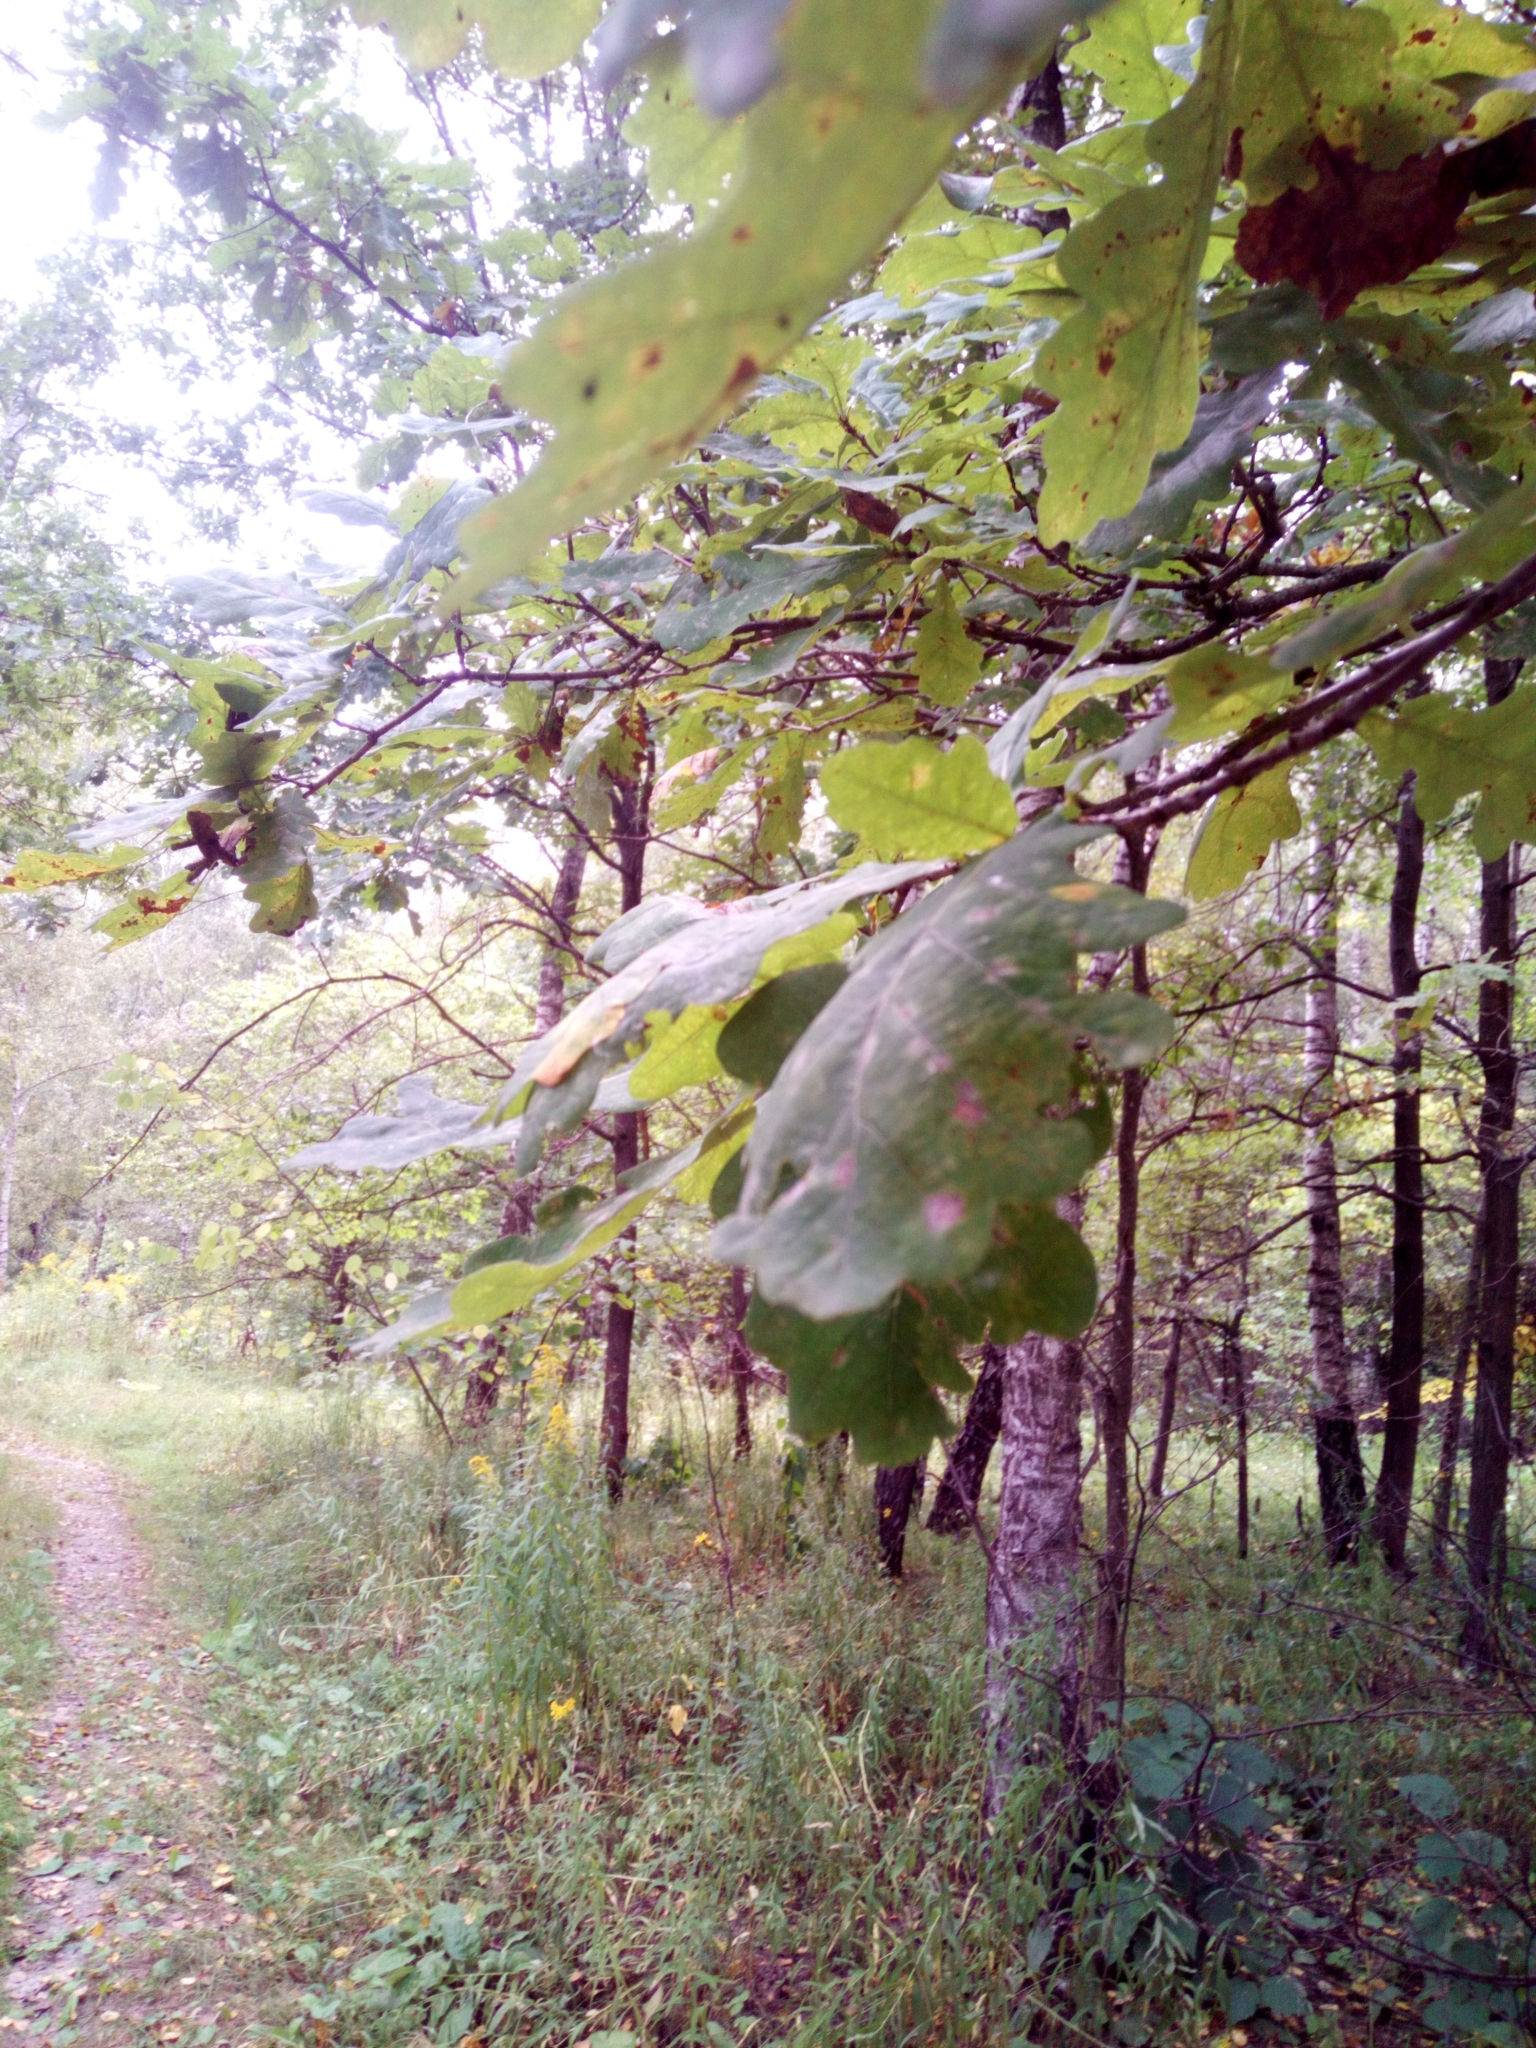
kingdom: Plantae
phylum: Tracheophyta
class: Magnoliopsida
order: Fagales
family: Fagaceae
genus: Quercus
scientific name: Quercus robur
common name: Pedunculate oak
